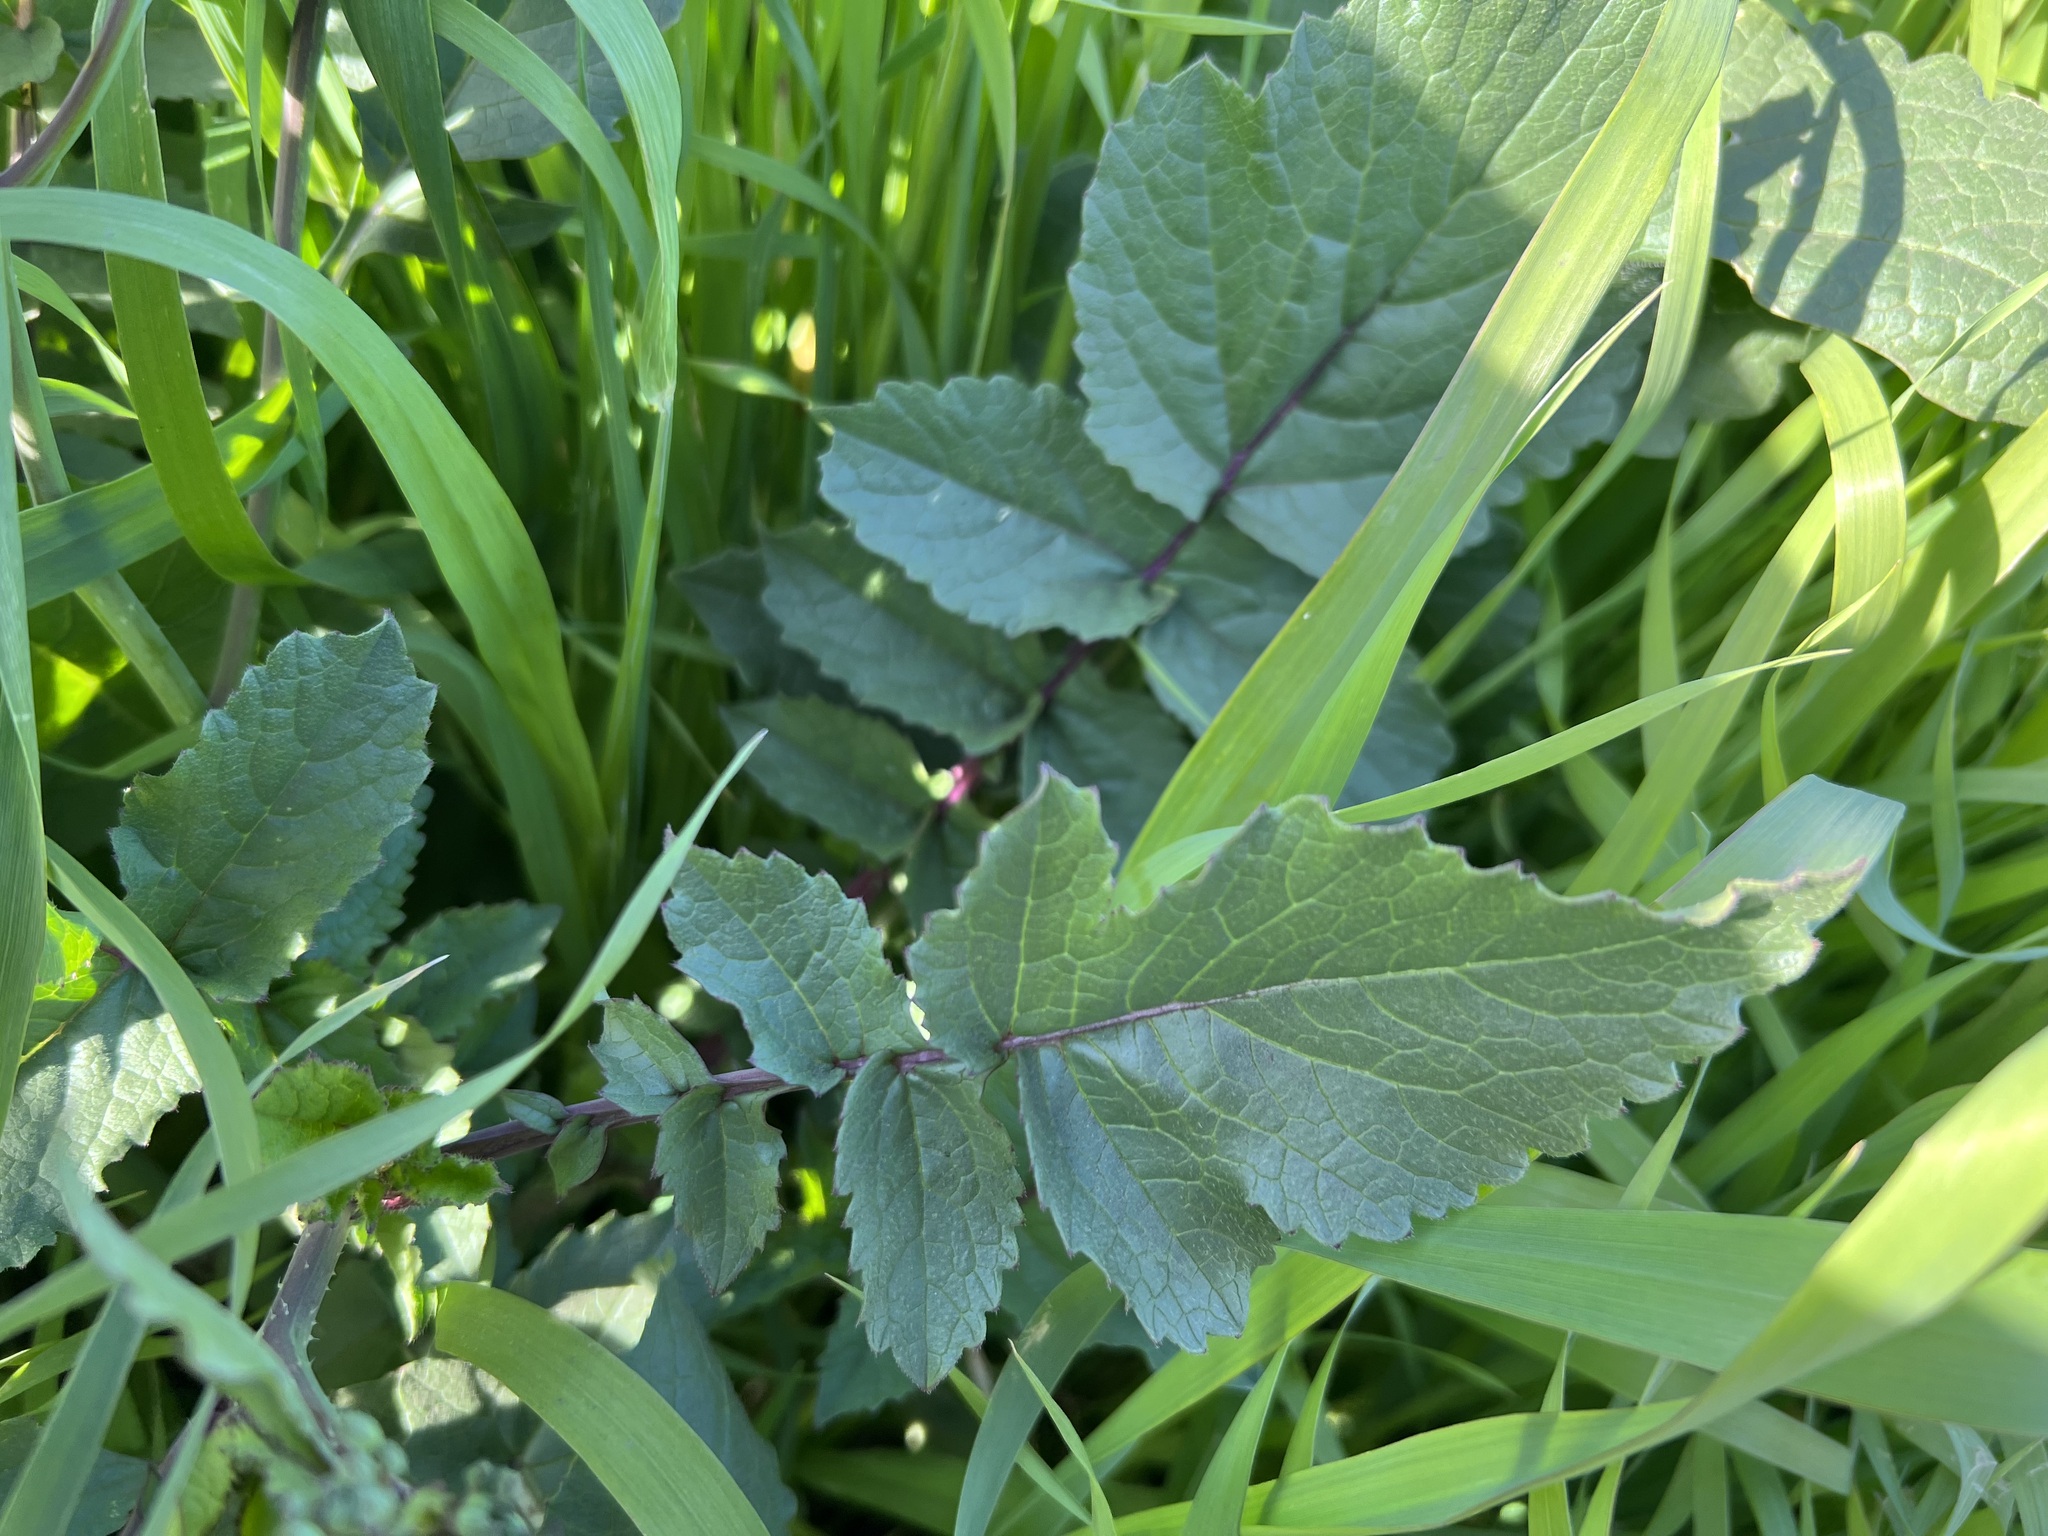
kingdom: Plantae
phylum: Tracheophyta
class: Magnoliopsida
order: Brassicales
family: Brassicaceae
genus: Raphanus
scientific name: Raphanus sativus
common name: Cultivated radish
